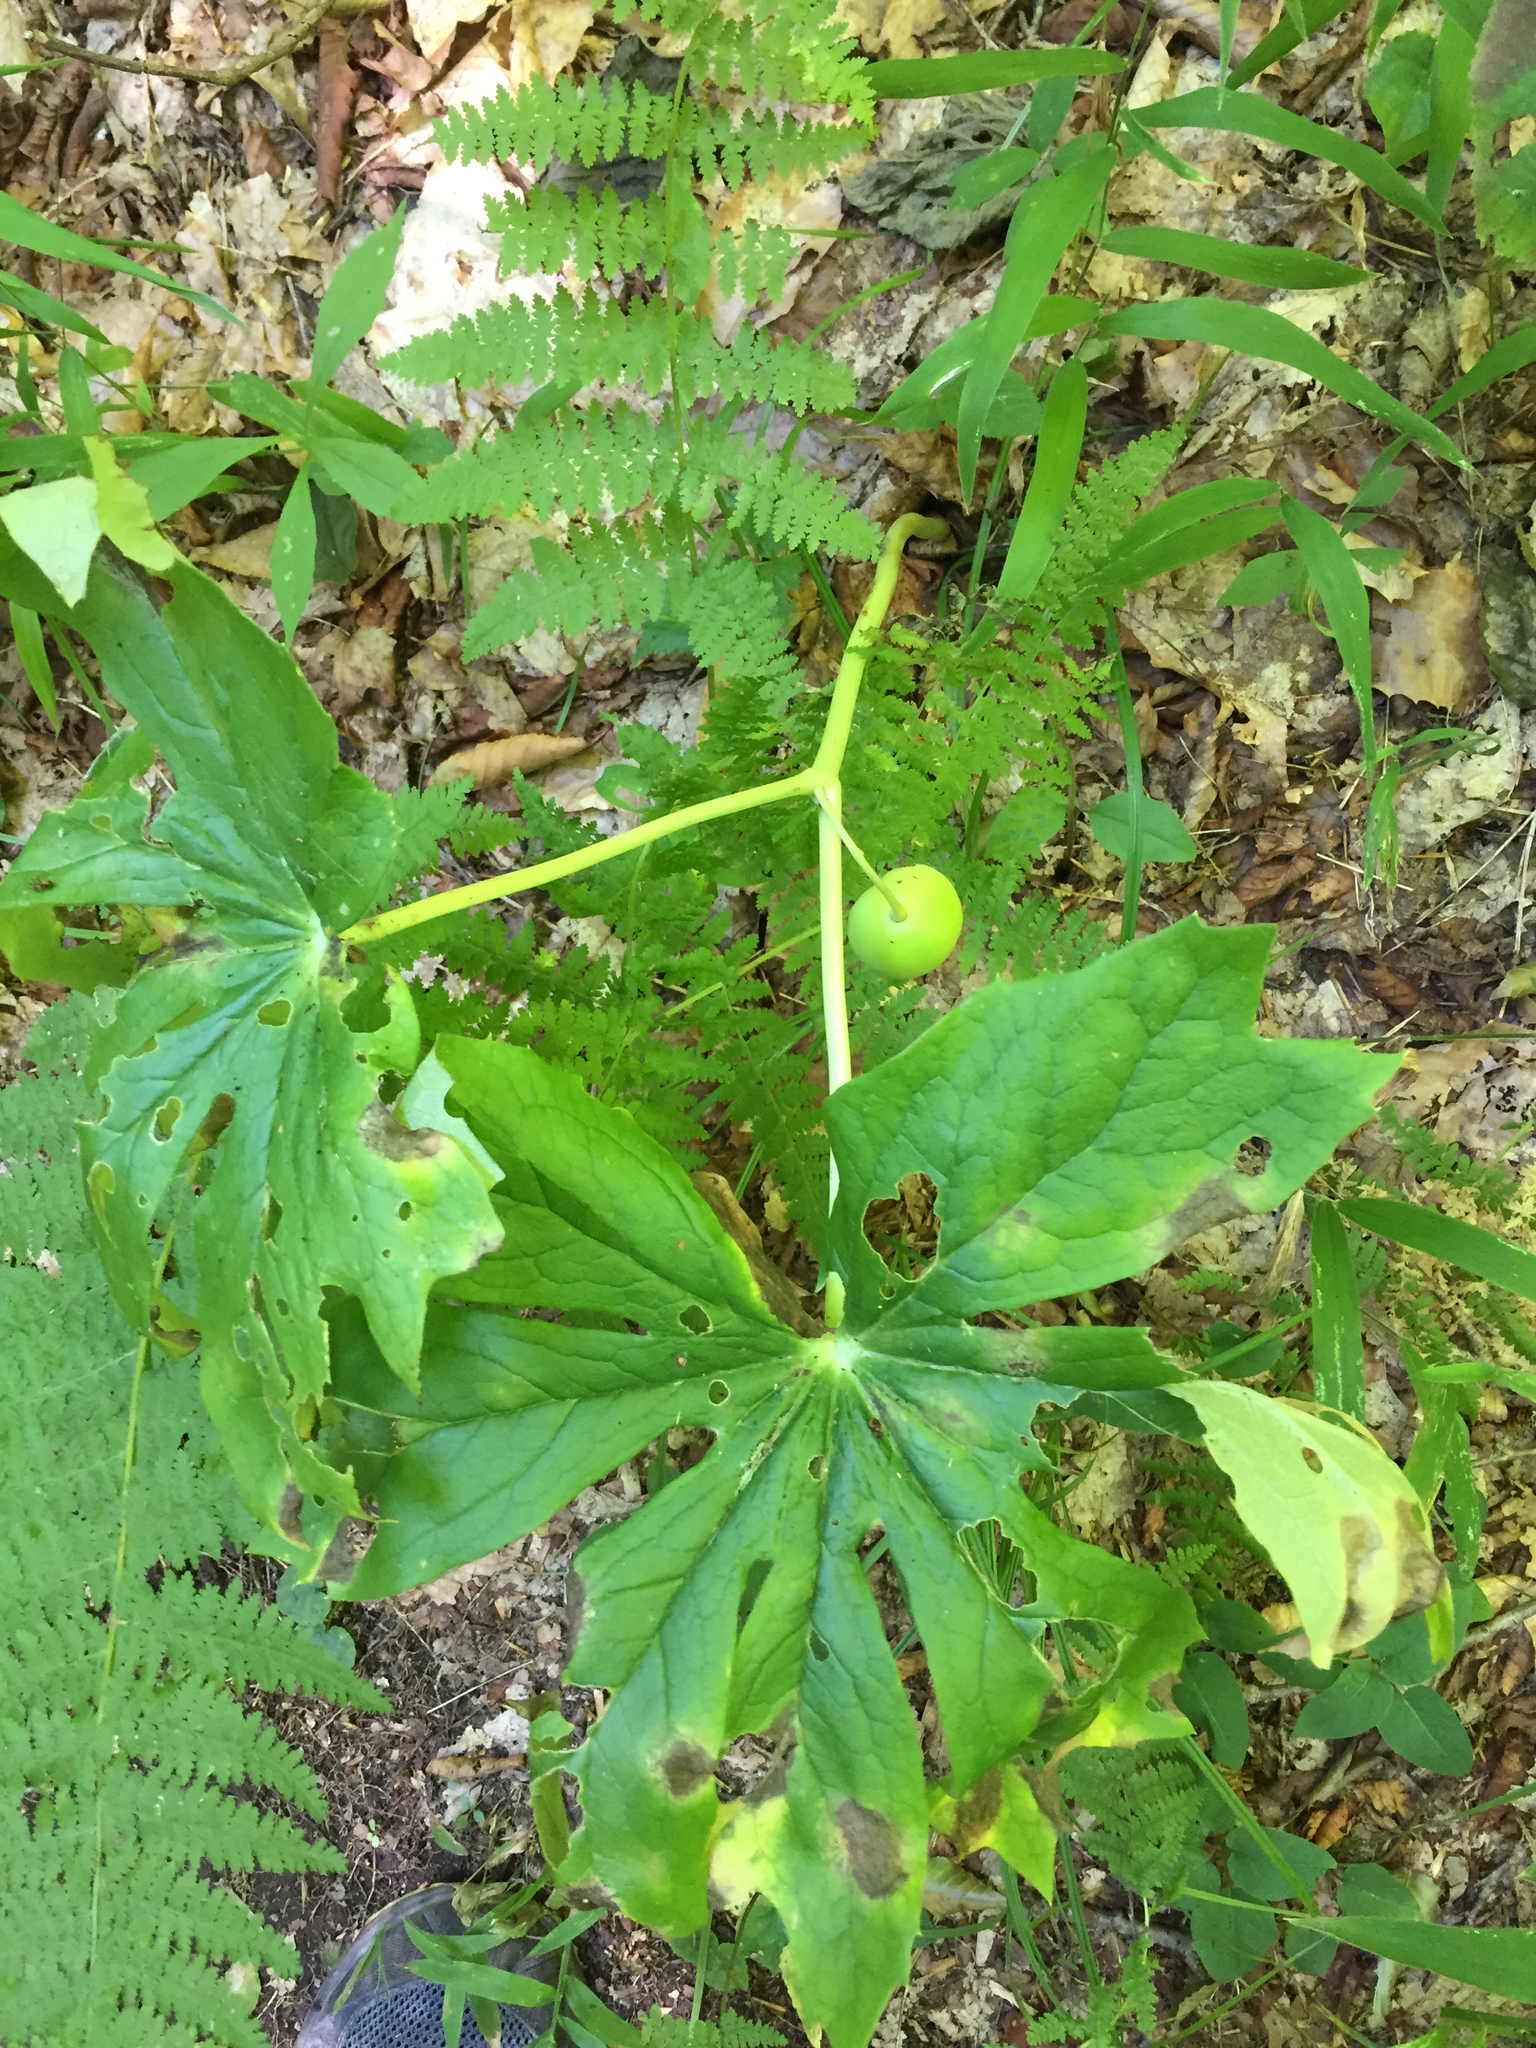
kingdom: Plantae
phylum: Tracheophyta
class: Magnoliopsida
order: Ranunculales
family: Berberidaceae
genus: Podophyllum
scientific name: Podophyllum peltatum
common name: Wild mandrake
